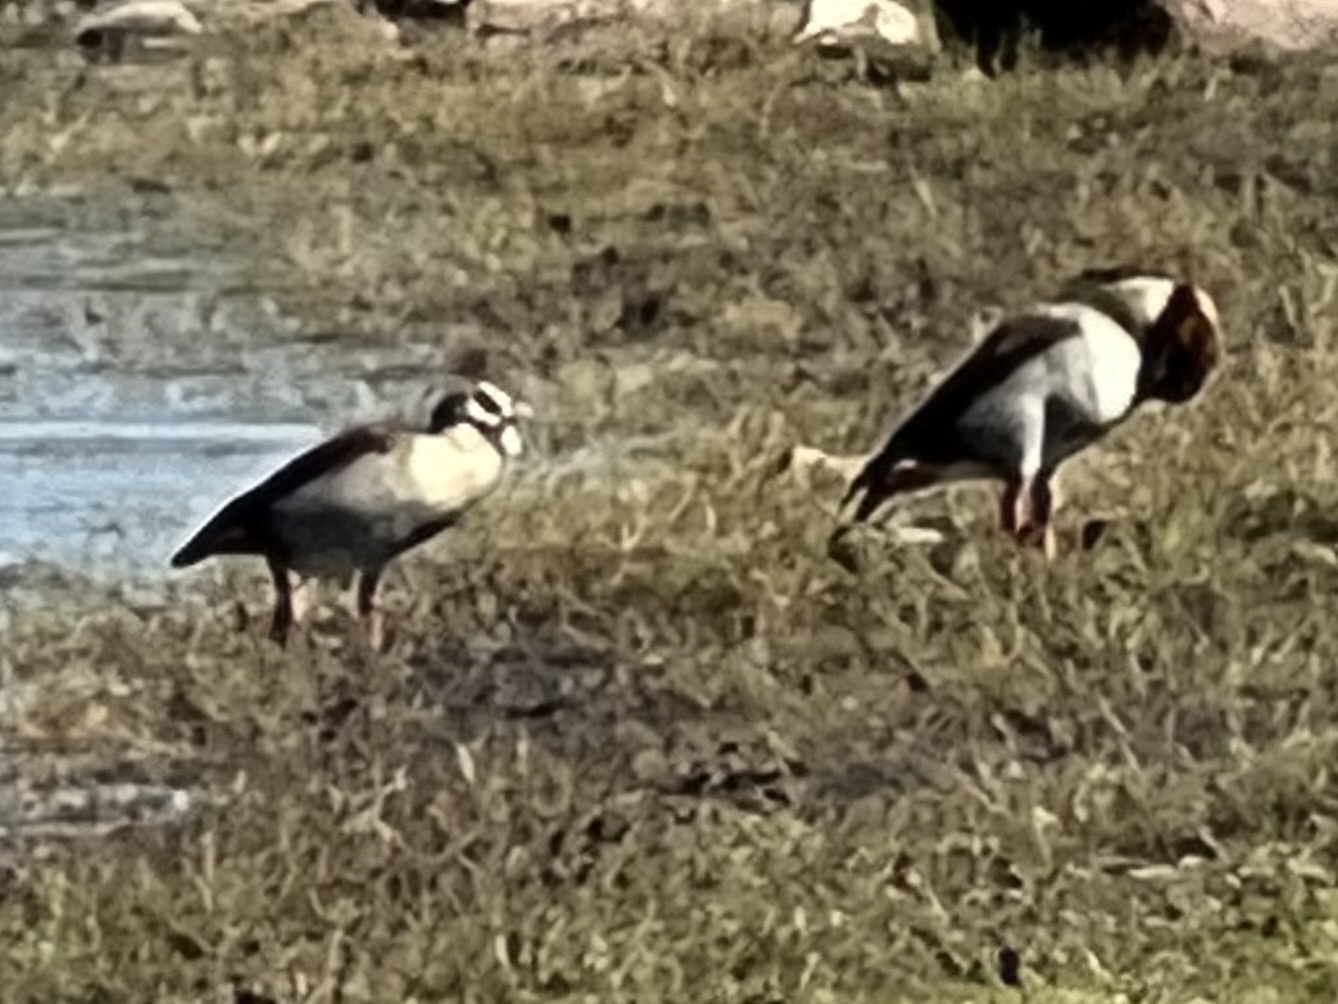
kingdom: Animalia
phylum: Chordata
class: Aves
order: Anseriformes
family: Anatidae
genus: Alopochen
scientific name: Alopochen aegyptiaca
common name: Egyptian goose
